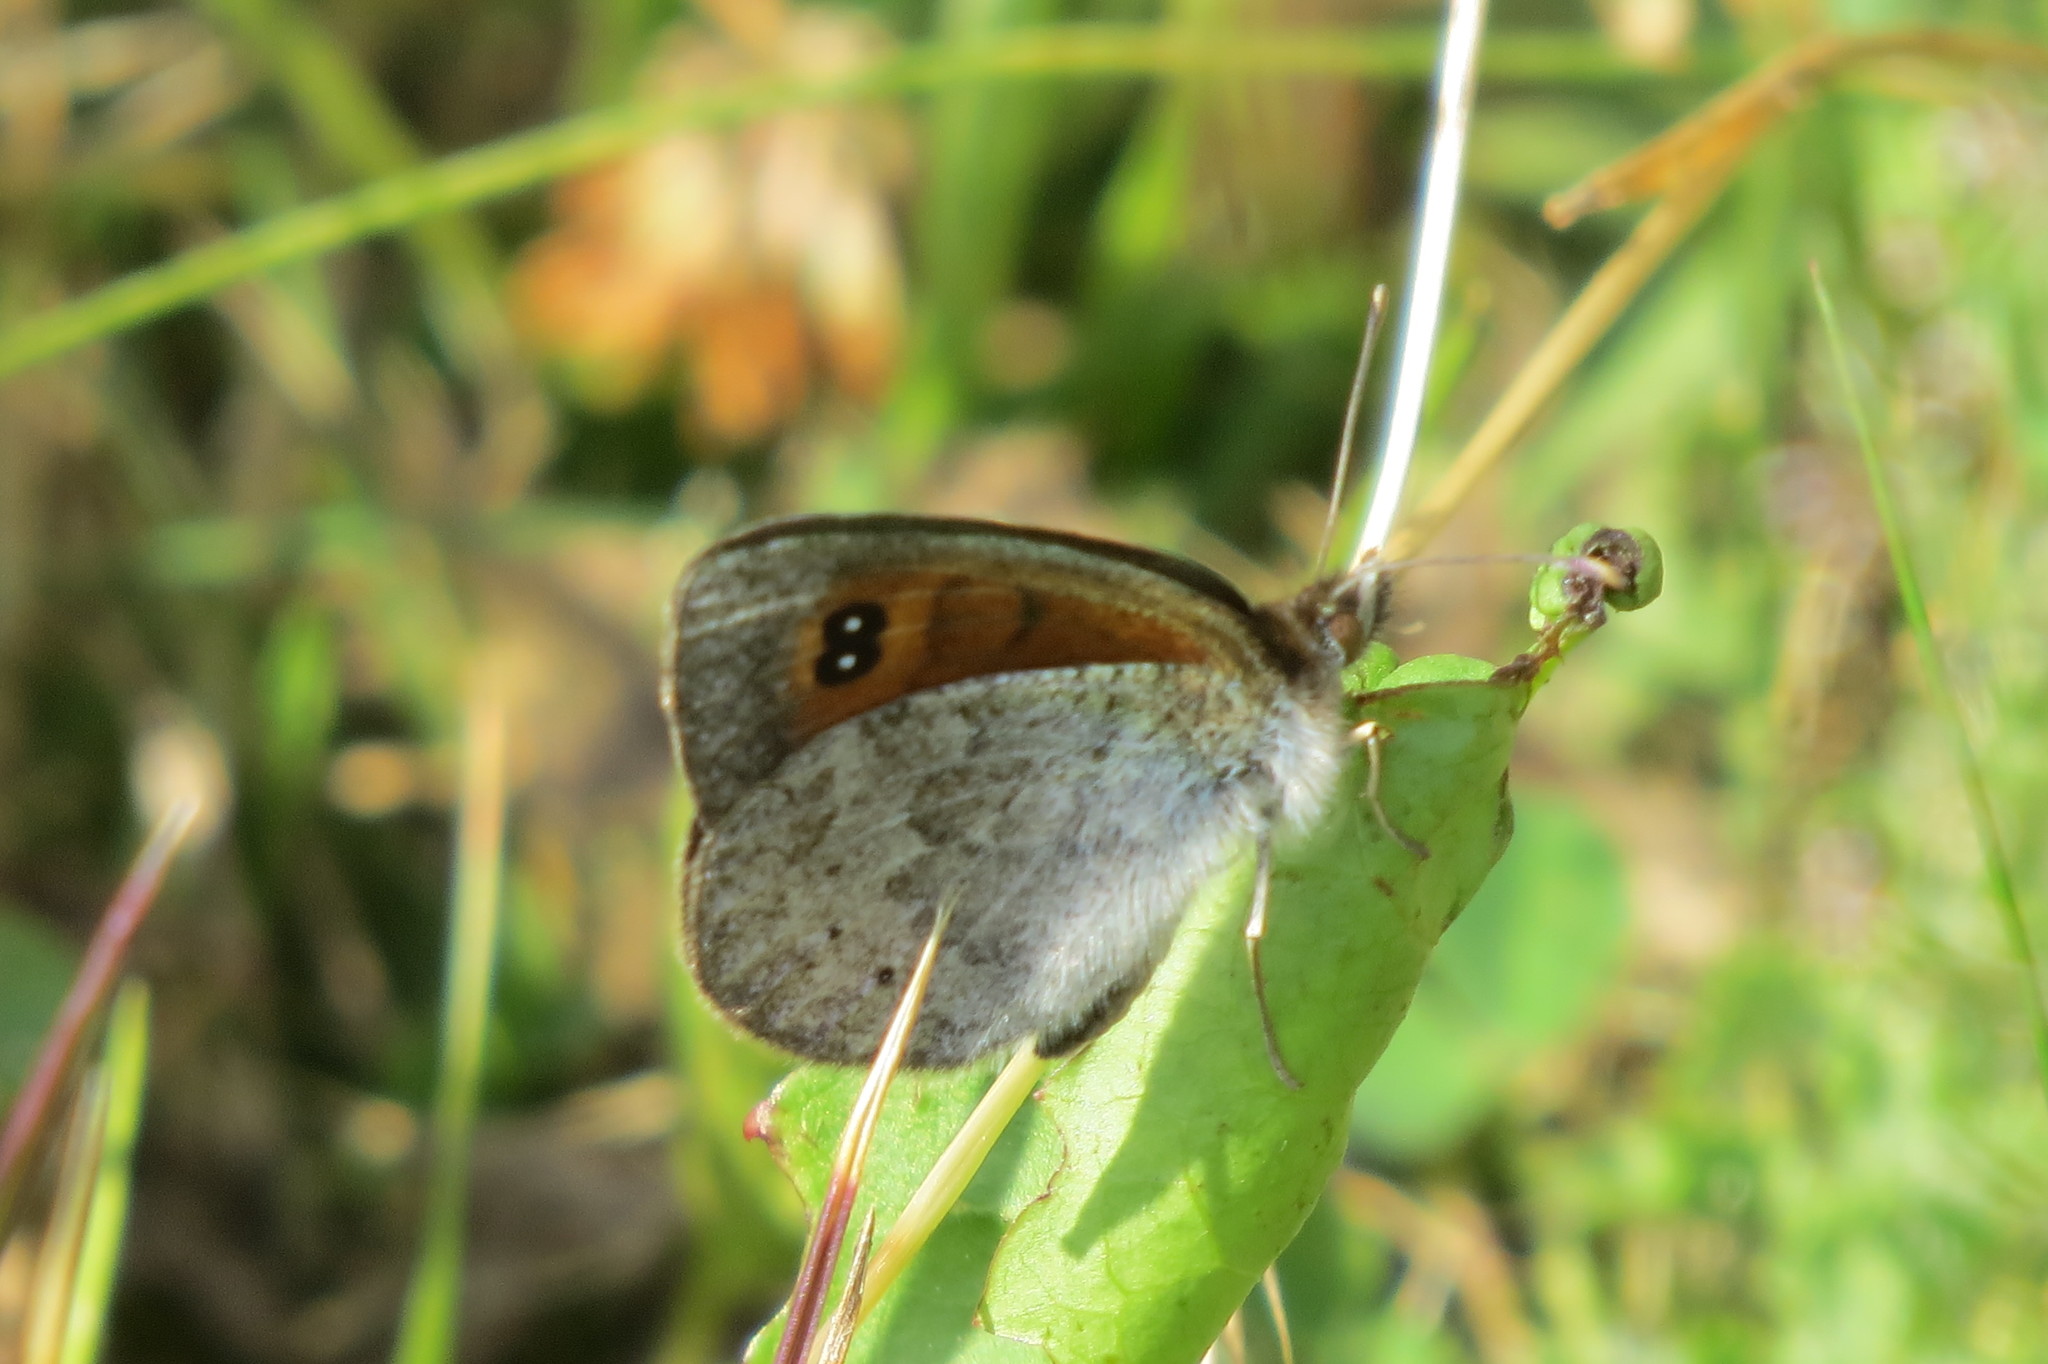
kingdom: Animalia
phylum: Arthropoda
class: Insecta
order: Lepidoptera
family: Nymphalidae
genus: Erebia
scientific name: Erebia cassioides
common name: Common brassy ringlet
